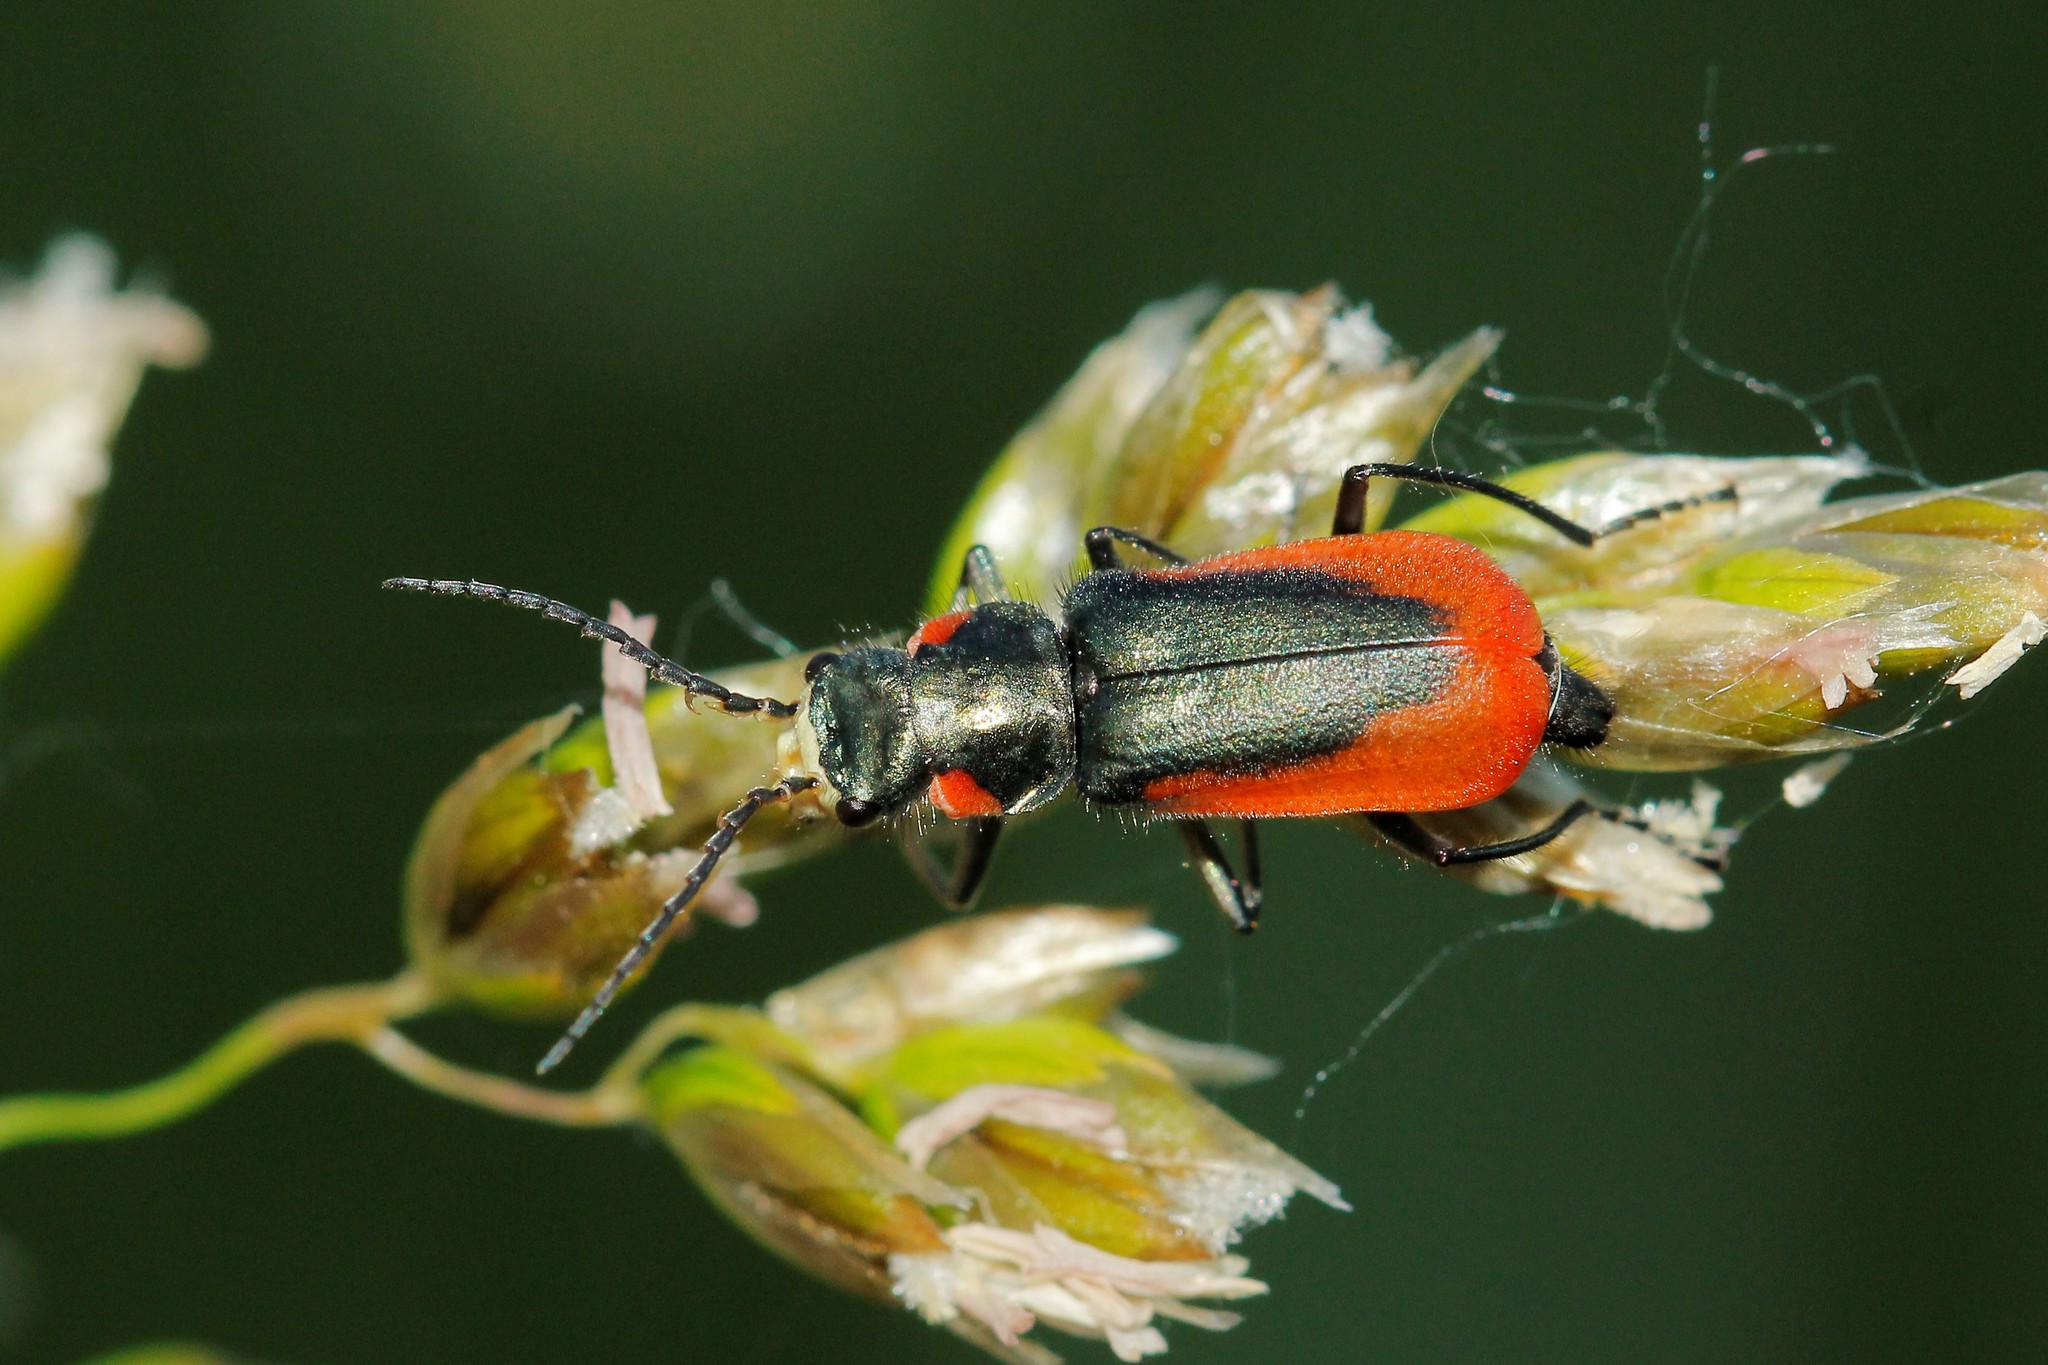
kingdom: Animalia
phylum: Arthropoda
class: Insecta
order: Coleoptera
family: Melyridae
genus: Malachius
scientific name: Malachius aeneus
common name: Scarlet malachite beetle
